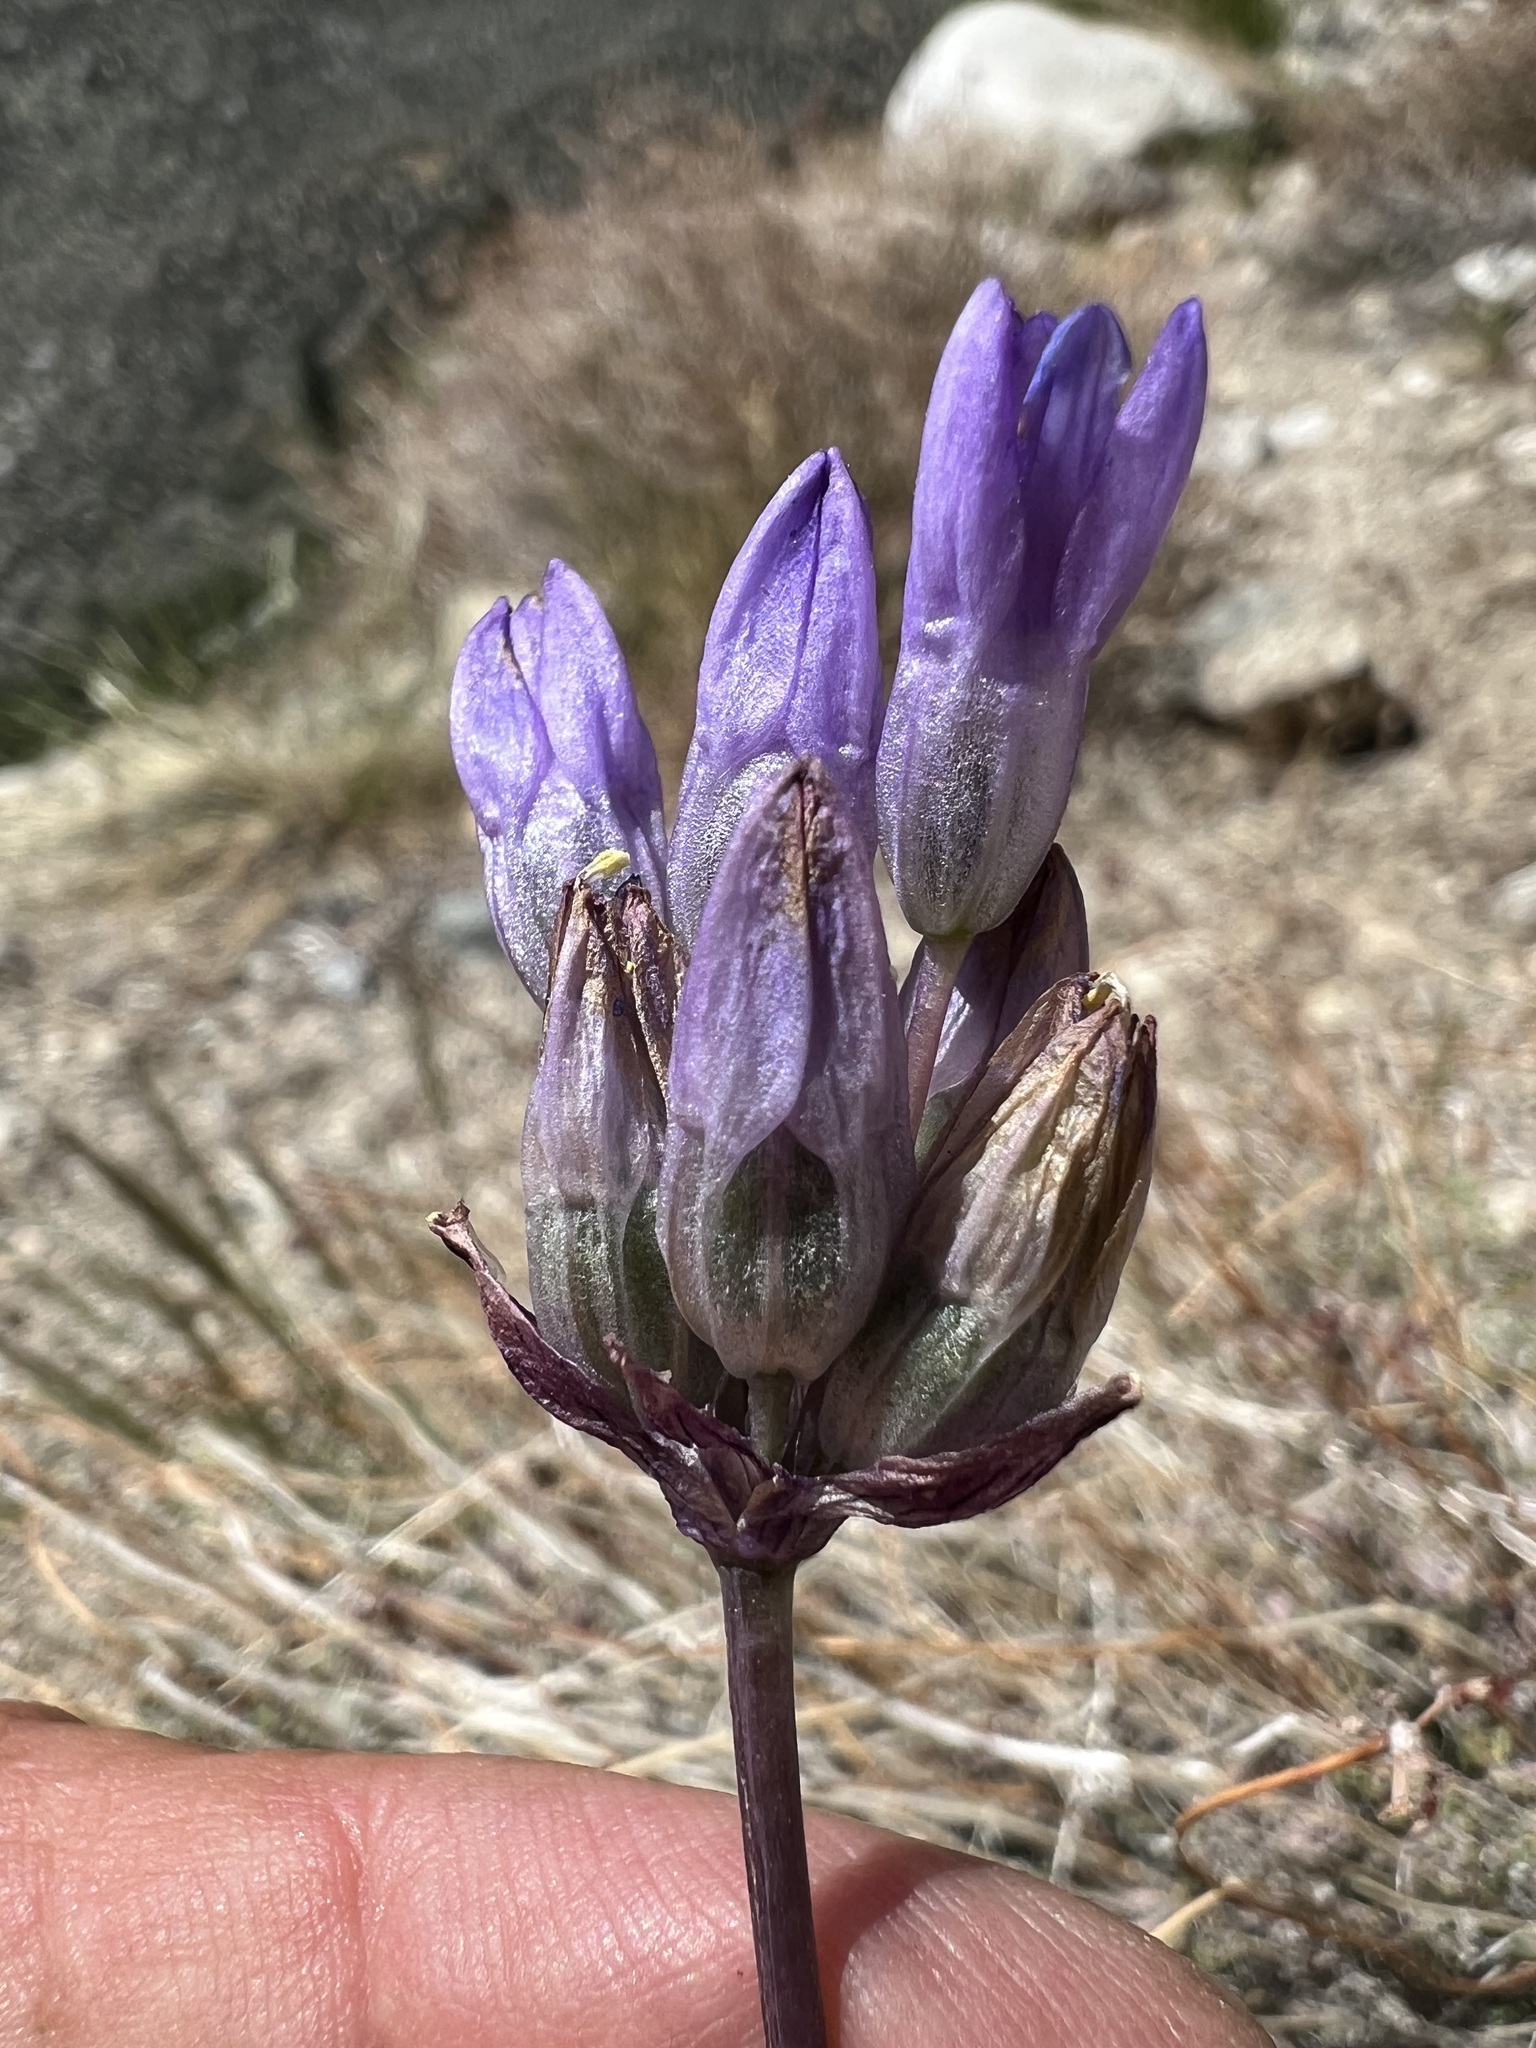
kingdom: Plantae
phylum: Tracheophyta
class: Liliopsida
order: Asparagales
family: Asparagaceae
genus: Dipterostemon
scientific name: Dipterostemon capitatus
